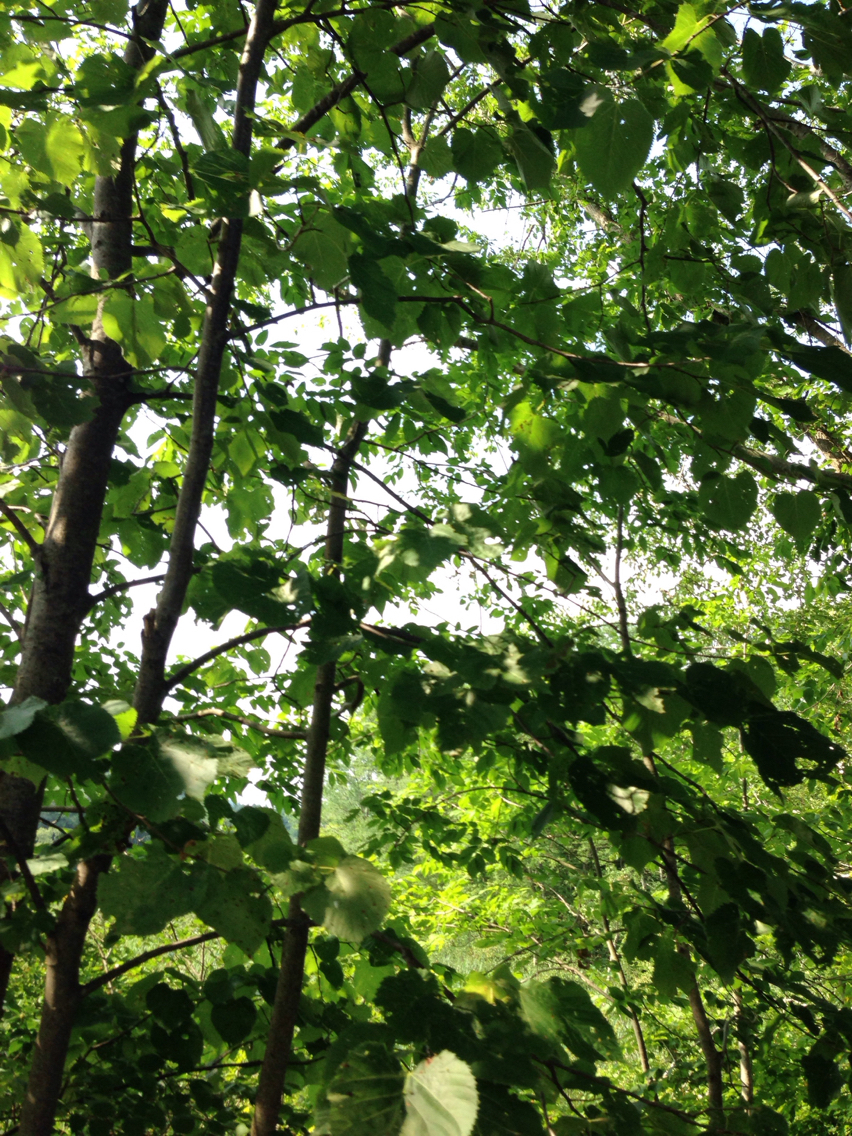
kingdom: Plantae
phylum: Tracheophyta
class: Magnoliopsida
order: Malvales
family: Malvaceae
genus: Tilia
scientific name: Tilia americana
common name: Basswood
